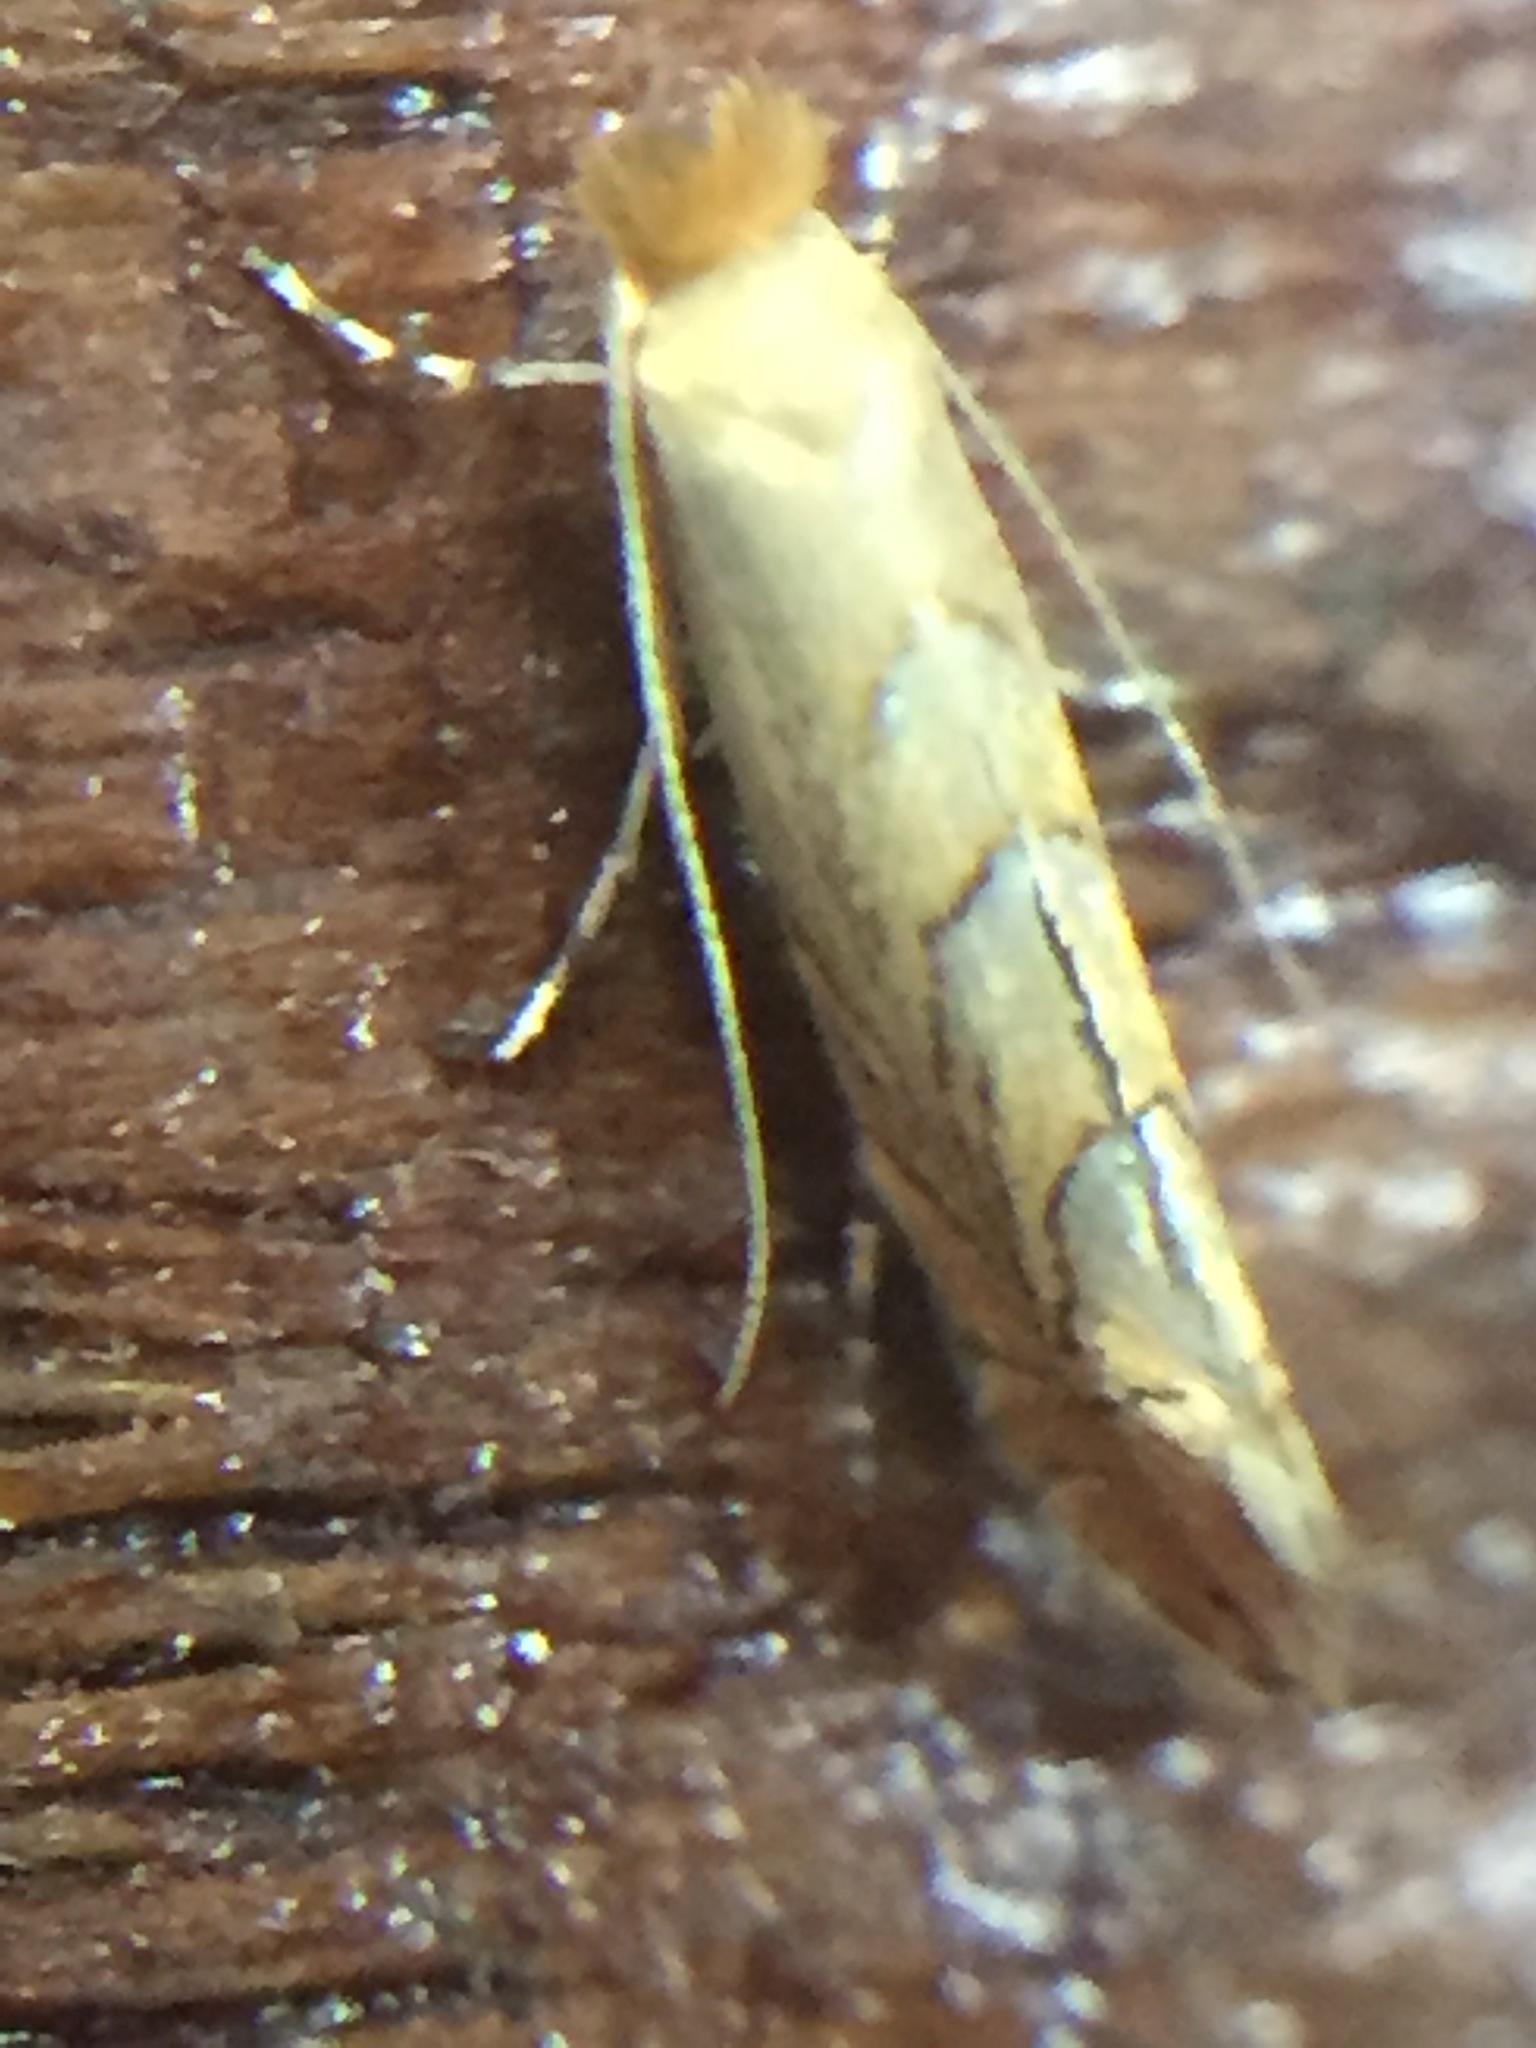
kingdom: Animalia
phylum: Arthropoda
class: Insecta
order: Lepidoptera
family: Gracillariidae
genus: Phyllonorycter
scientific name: Phyllonorycter messaniella
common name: Garden midget
